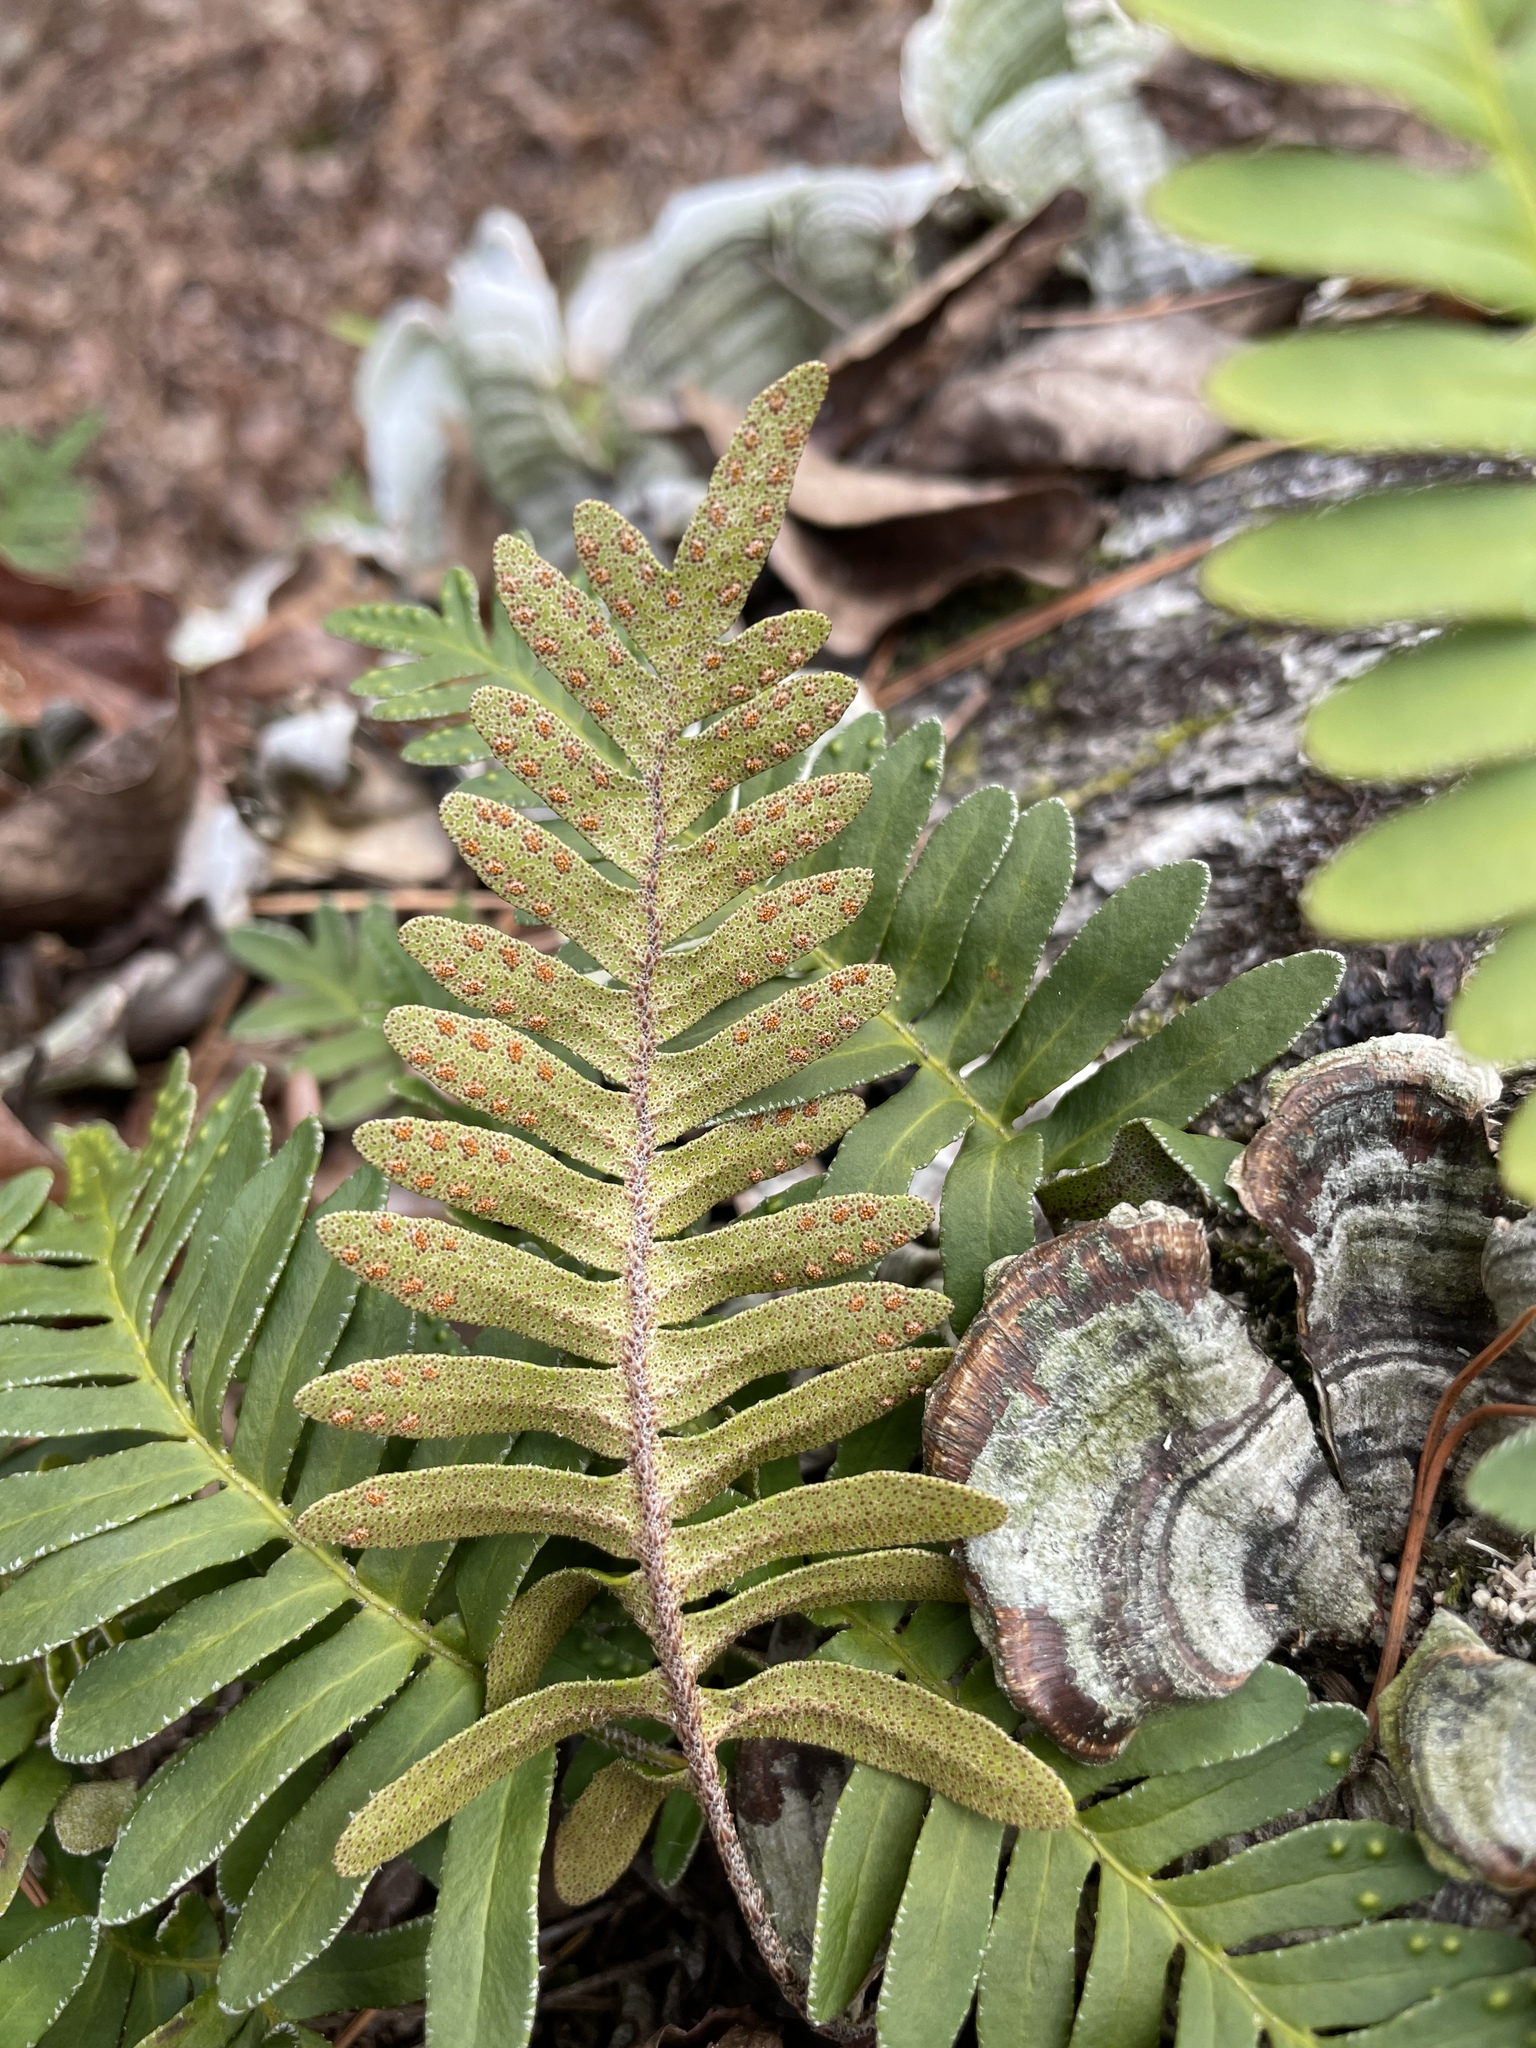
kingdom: Plantae
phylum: Tracheophyta
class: Polypodiopsida
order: Polypodiales
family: Polypodiaceae
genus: Pleopeltis
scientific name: Pleopeltis michauxiana
